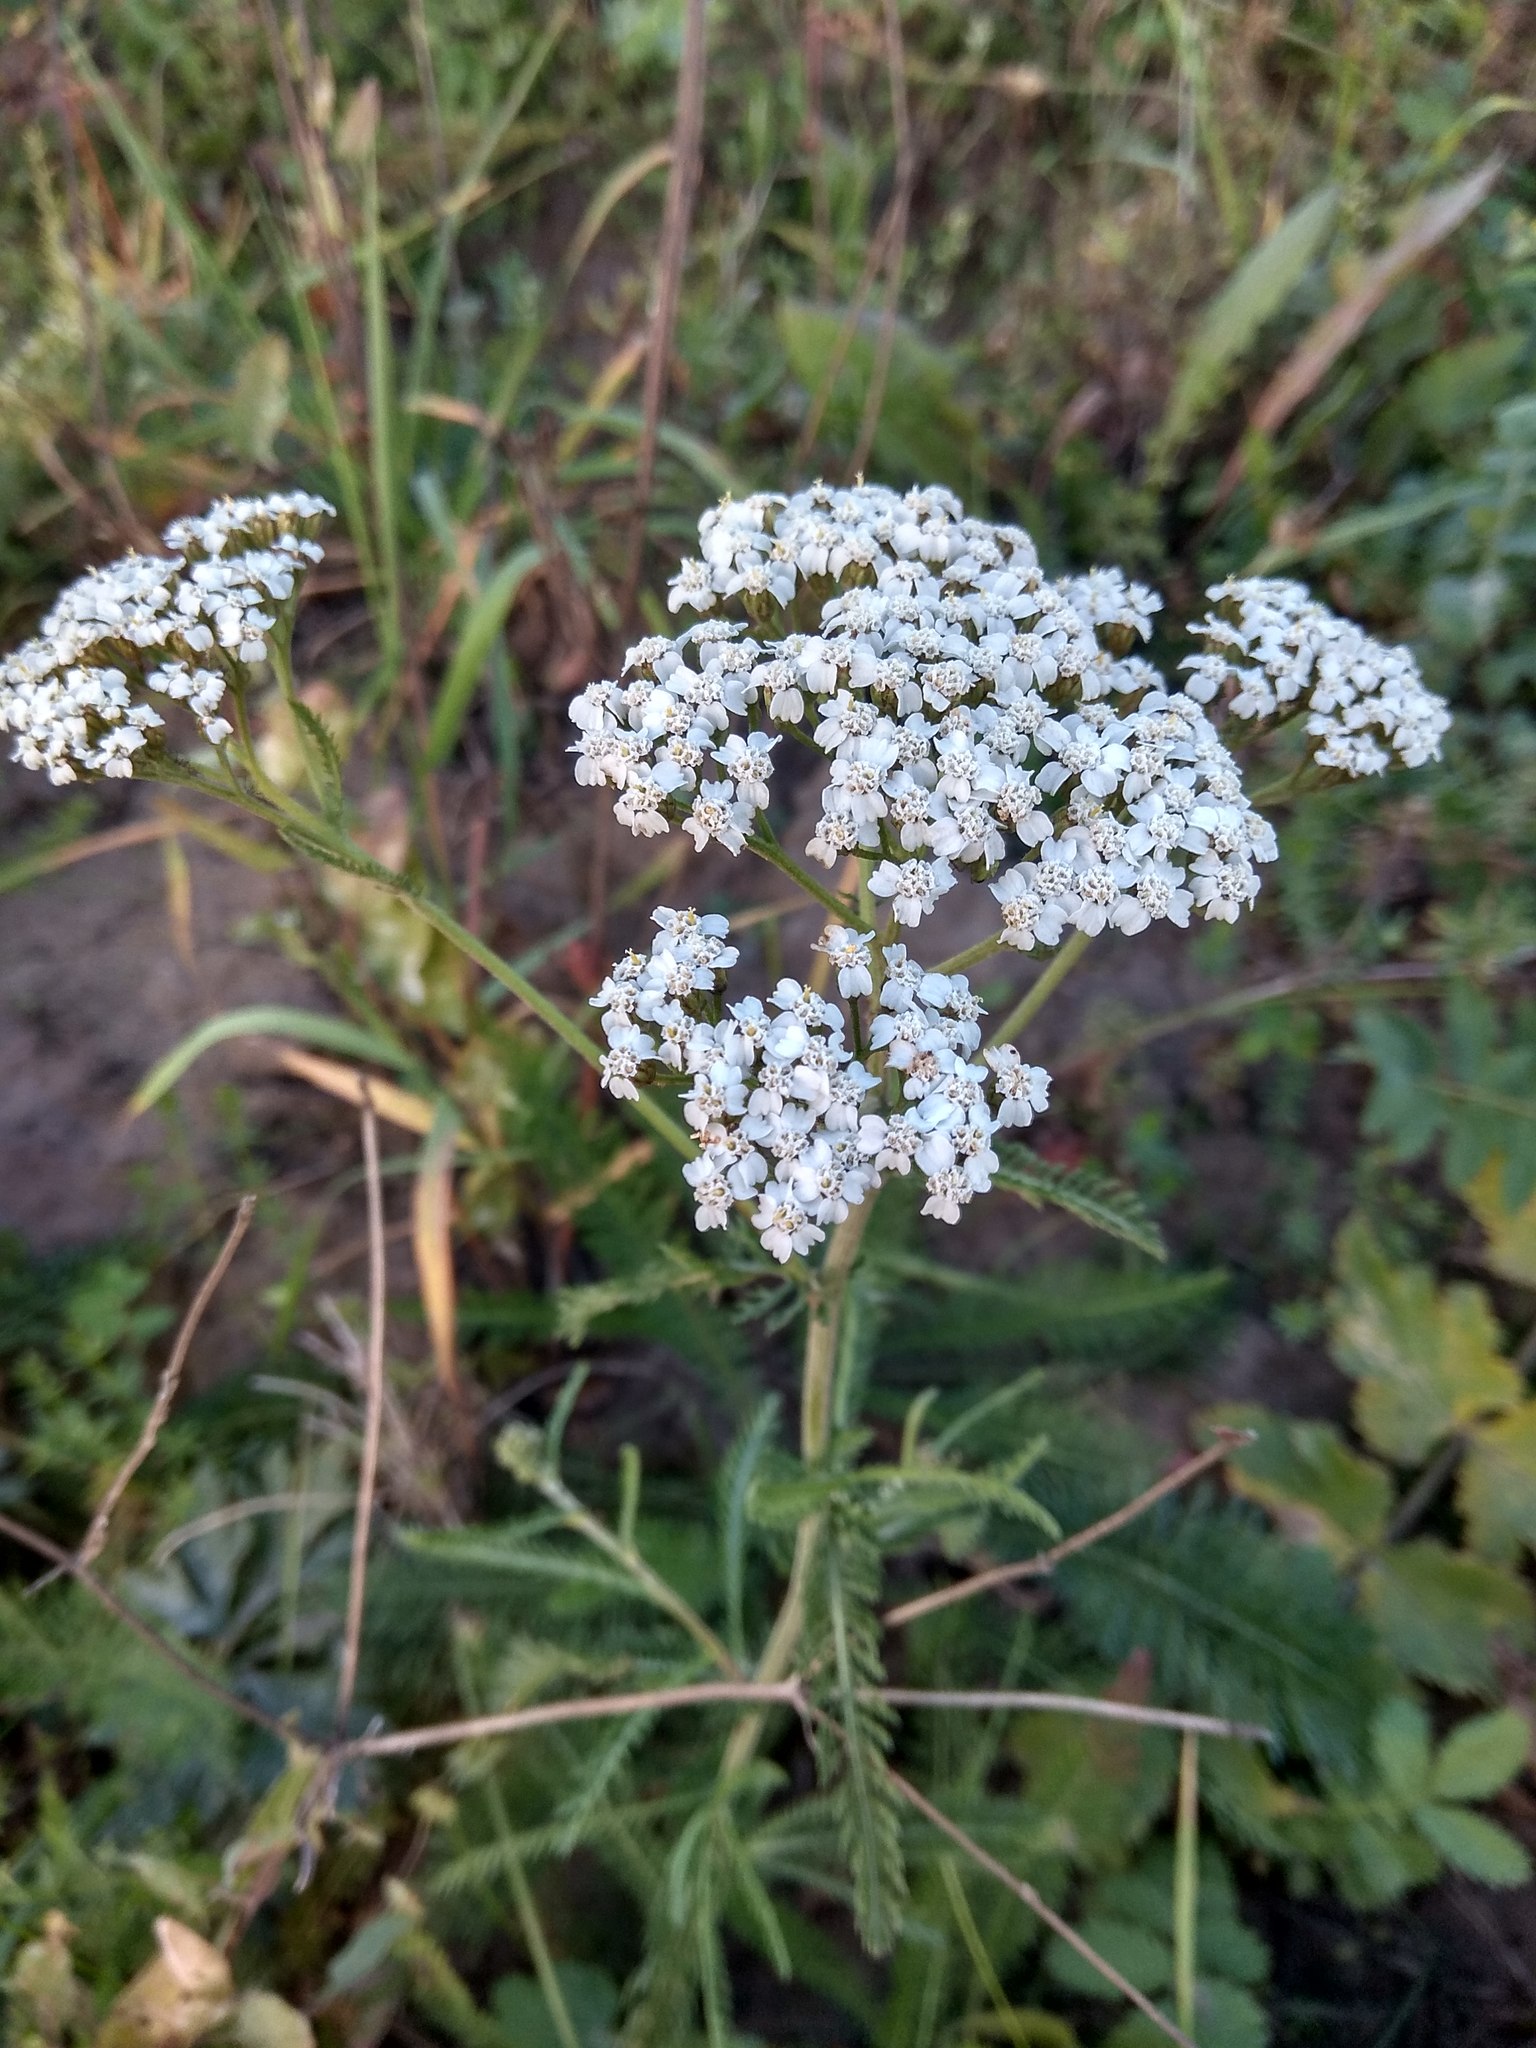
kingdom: Plantae
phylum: Tracheophyta
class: Magnoliopsida
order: Asterales
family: Asteraceae
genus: Achillea
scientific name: Achillea millefolium
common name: Yarrow
